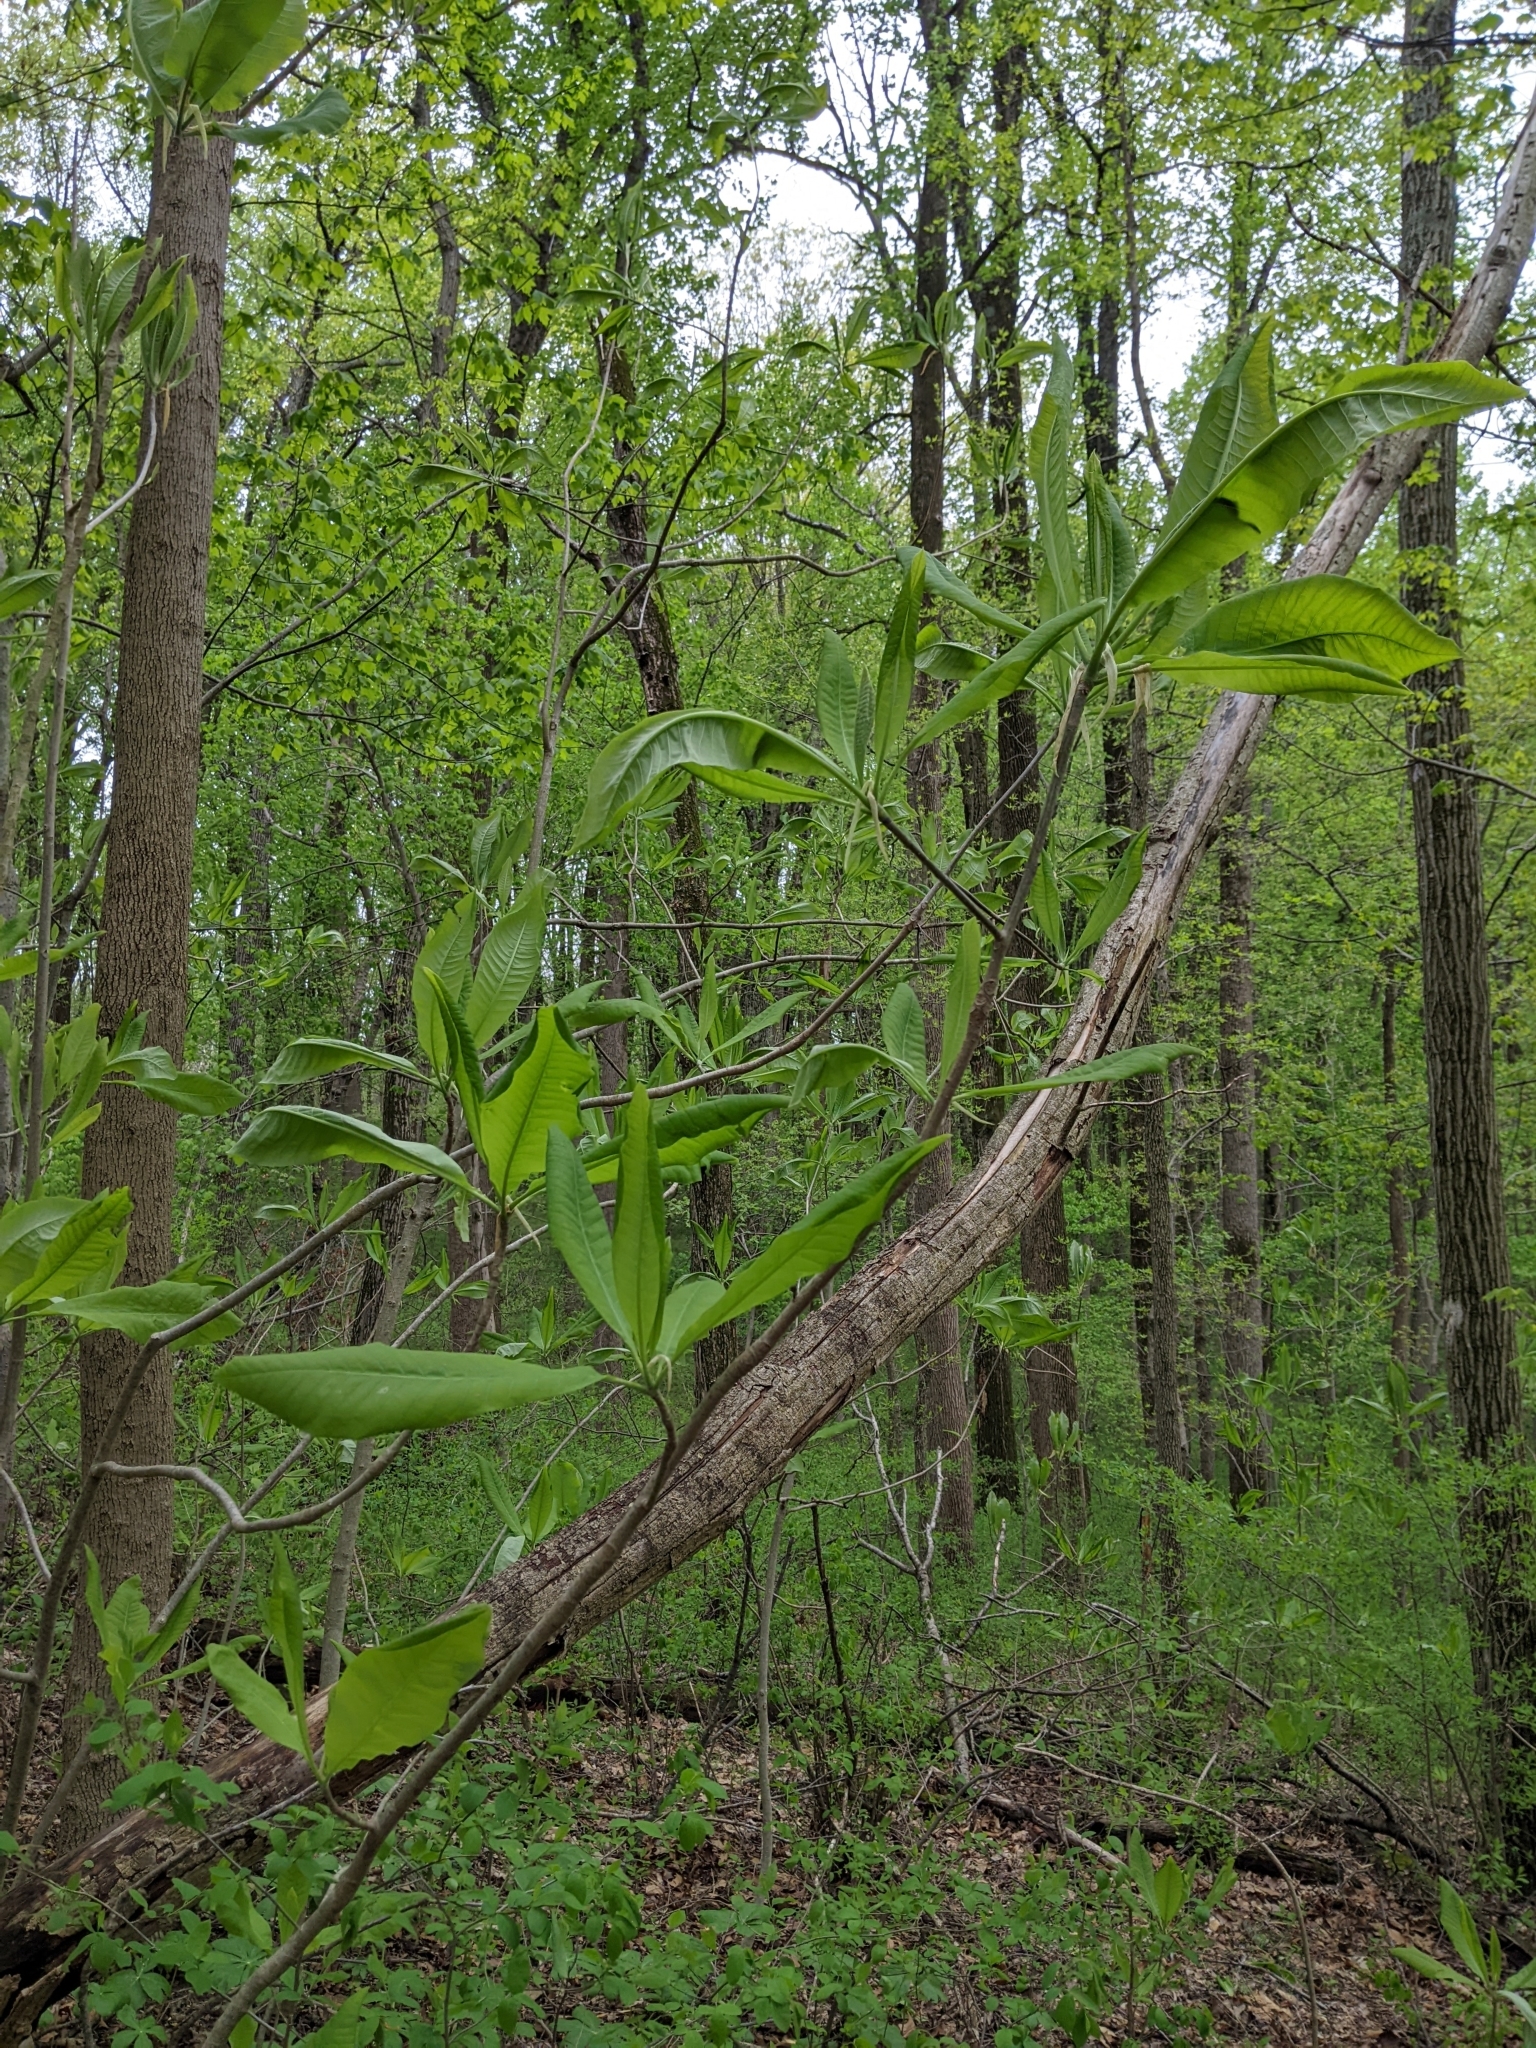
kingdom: Plantae
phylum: Tracheophyta
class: Magnoliopsida
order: Magnoliales
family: Magnoliaceae
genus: Magnolia
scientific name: Magnolia tripetala
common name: Umbrella magnolia
